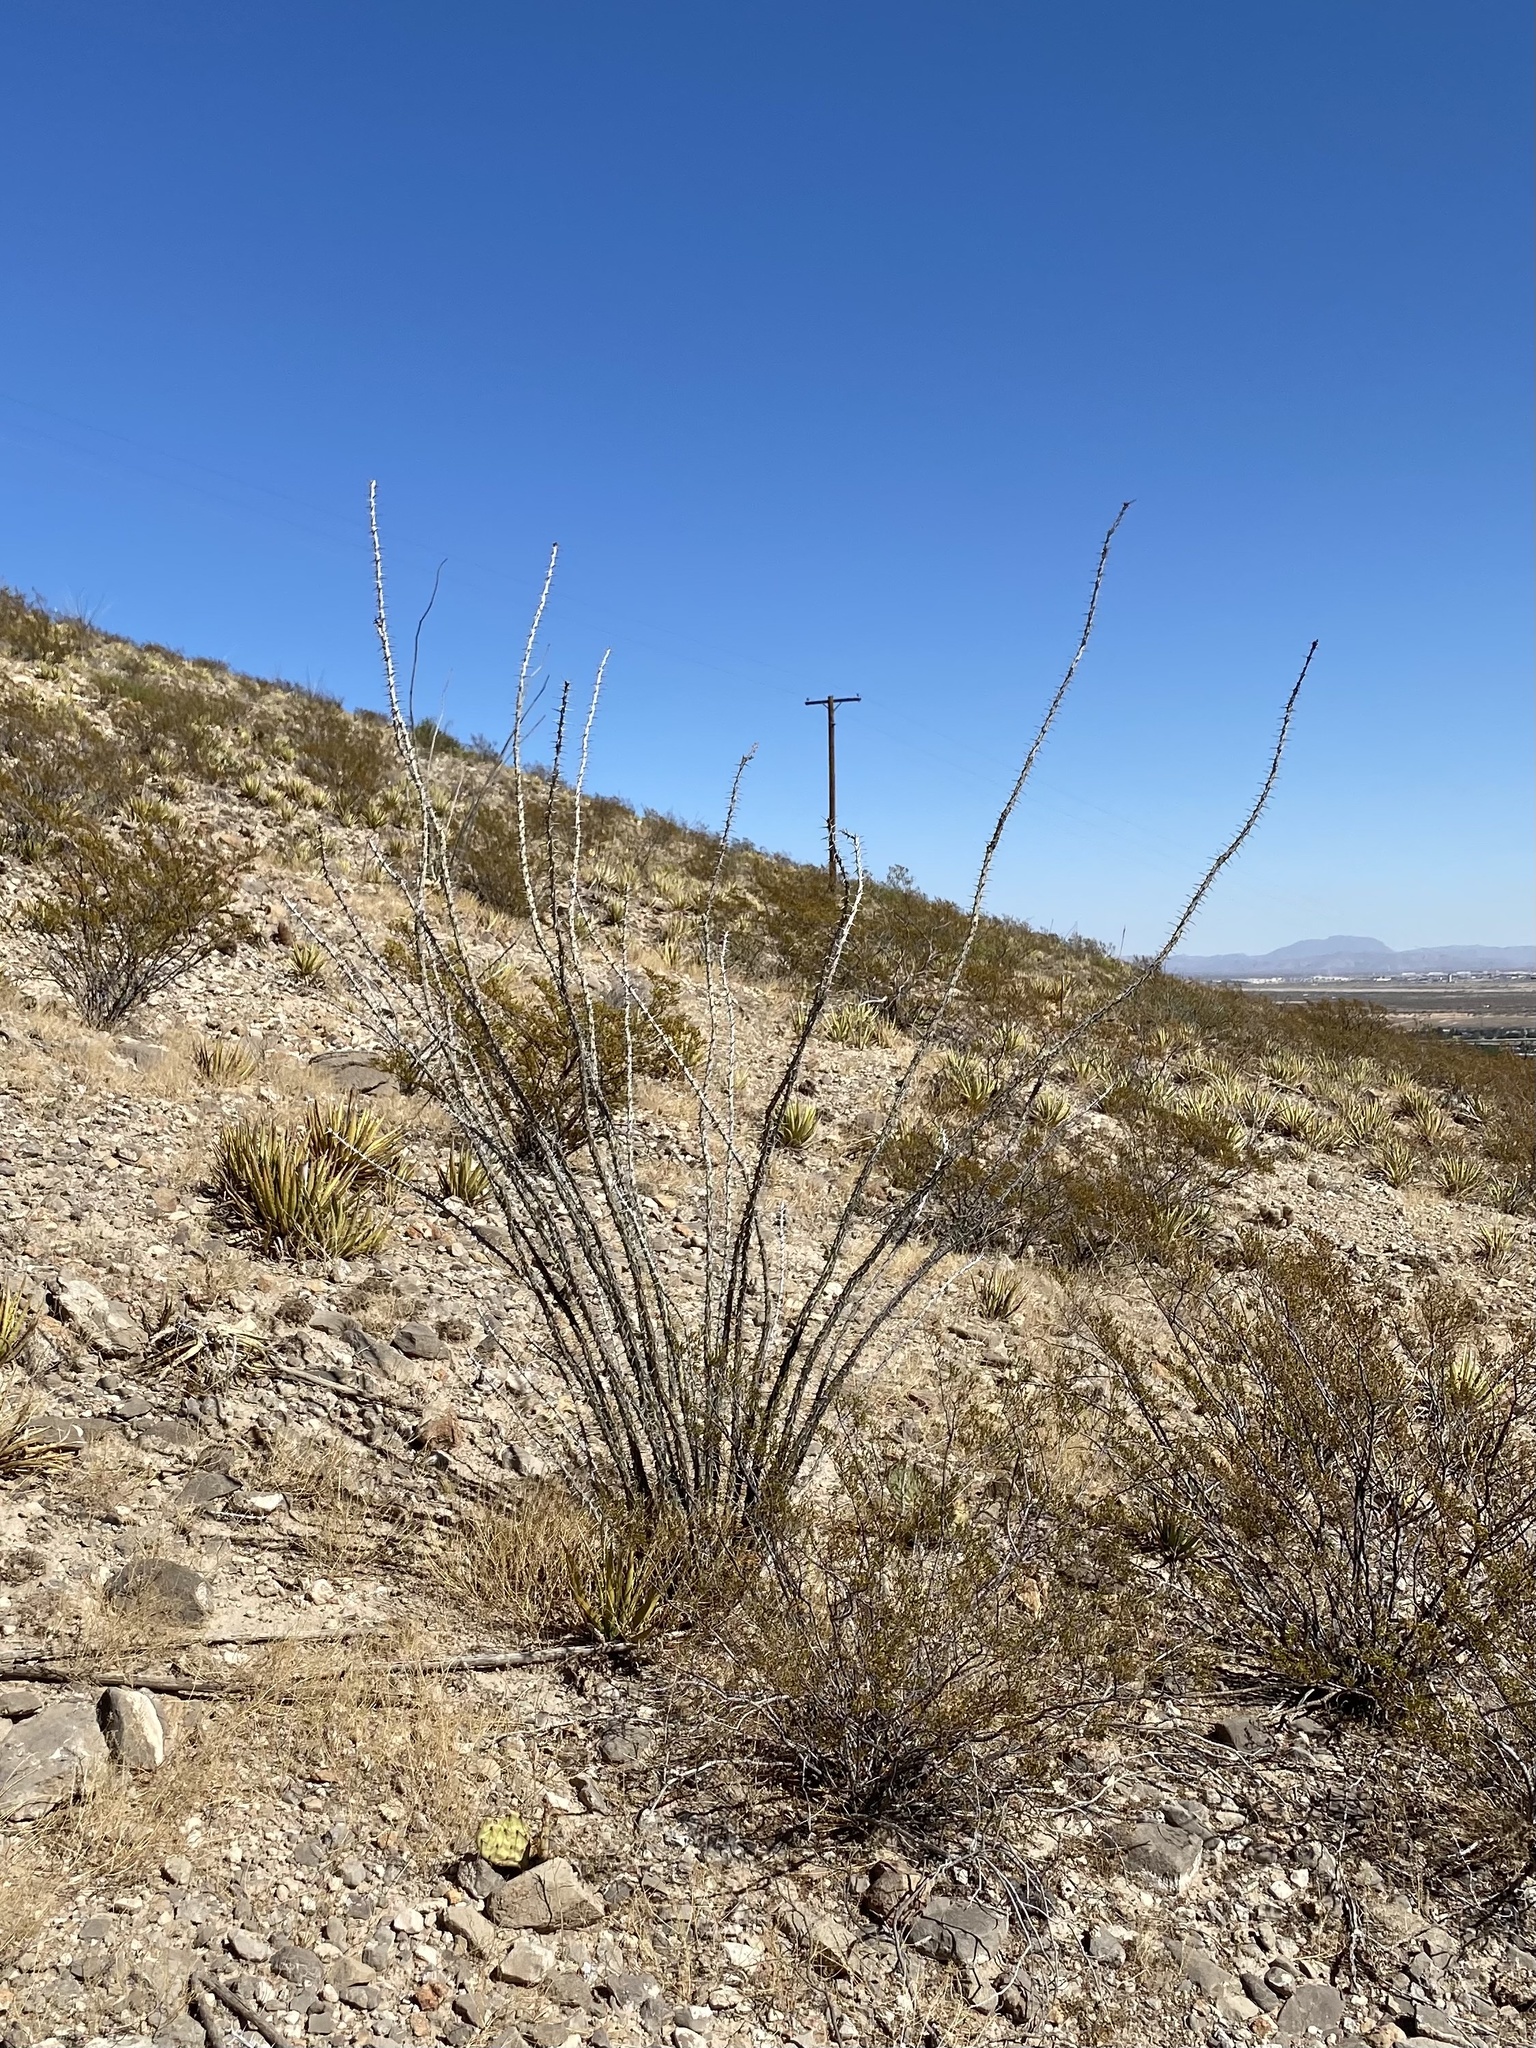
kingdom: Plantae
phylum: Tracheophyta
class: Magnoliopsida
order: Ericales
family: Fouquieriaceae
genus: Fouquieria
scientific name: Fouquieria splendens
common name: Vine-cactus
